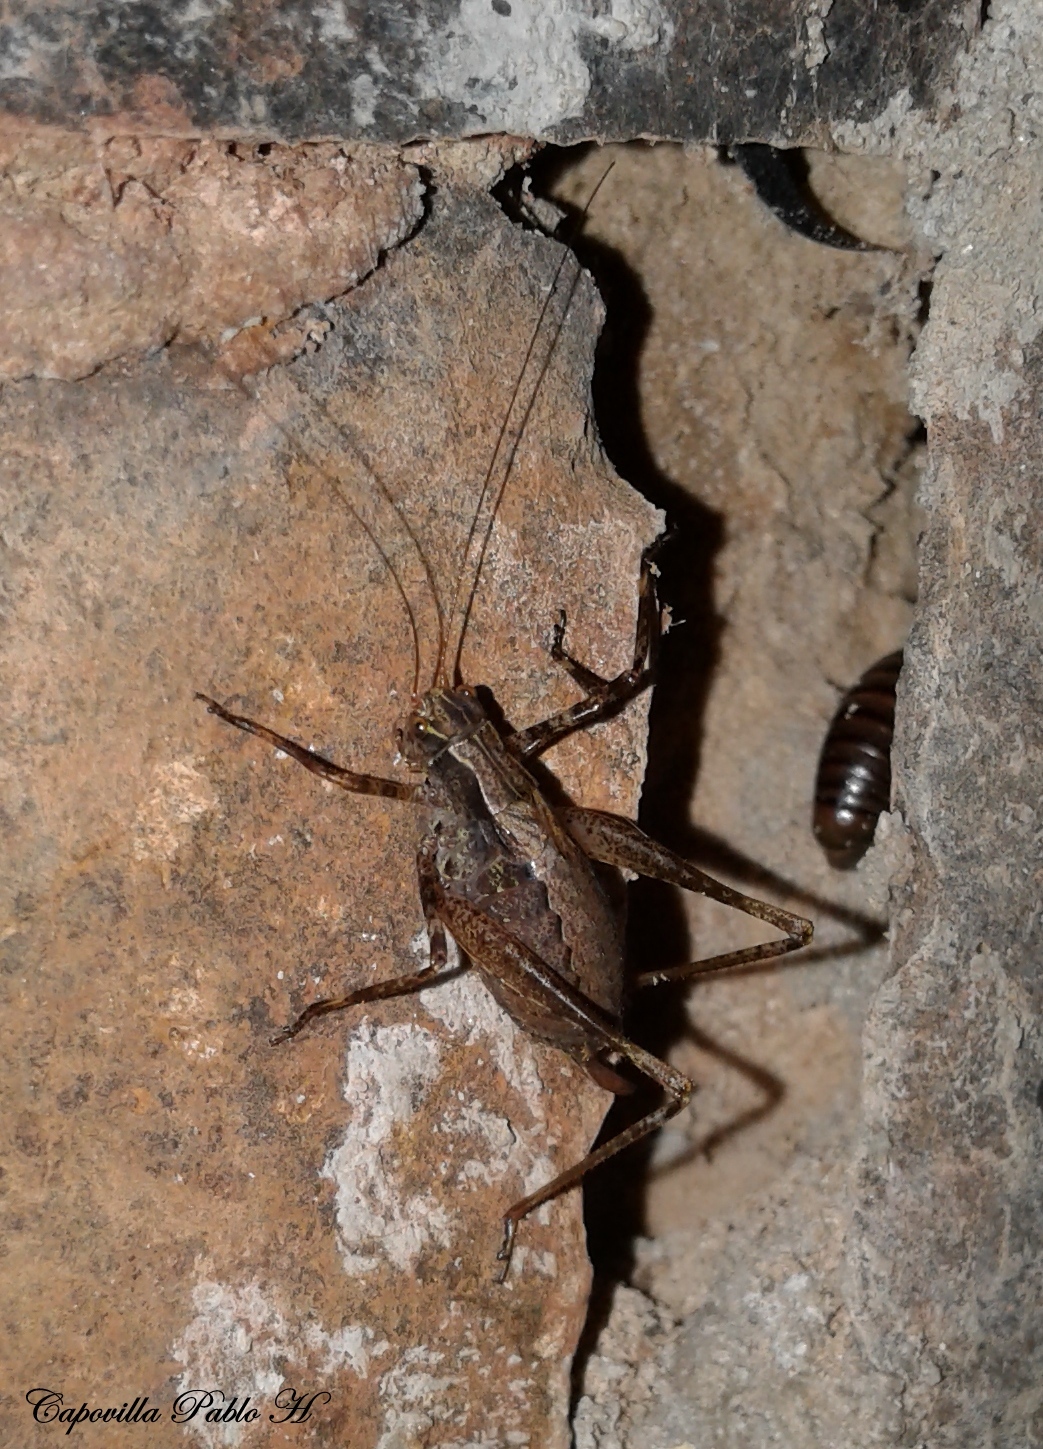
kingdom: Animalia
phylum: Arthropoda
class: Insecta
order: Orthoptera
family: Tettigoniidae
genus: Anisophya
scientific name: Anisophya una
